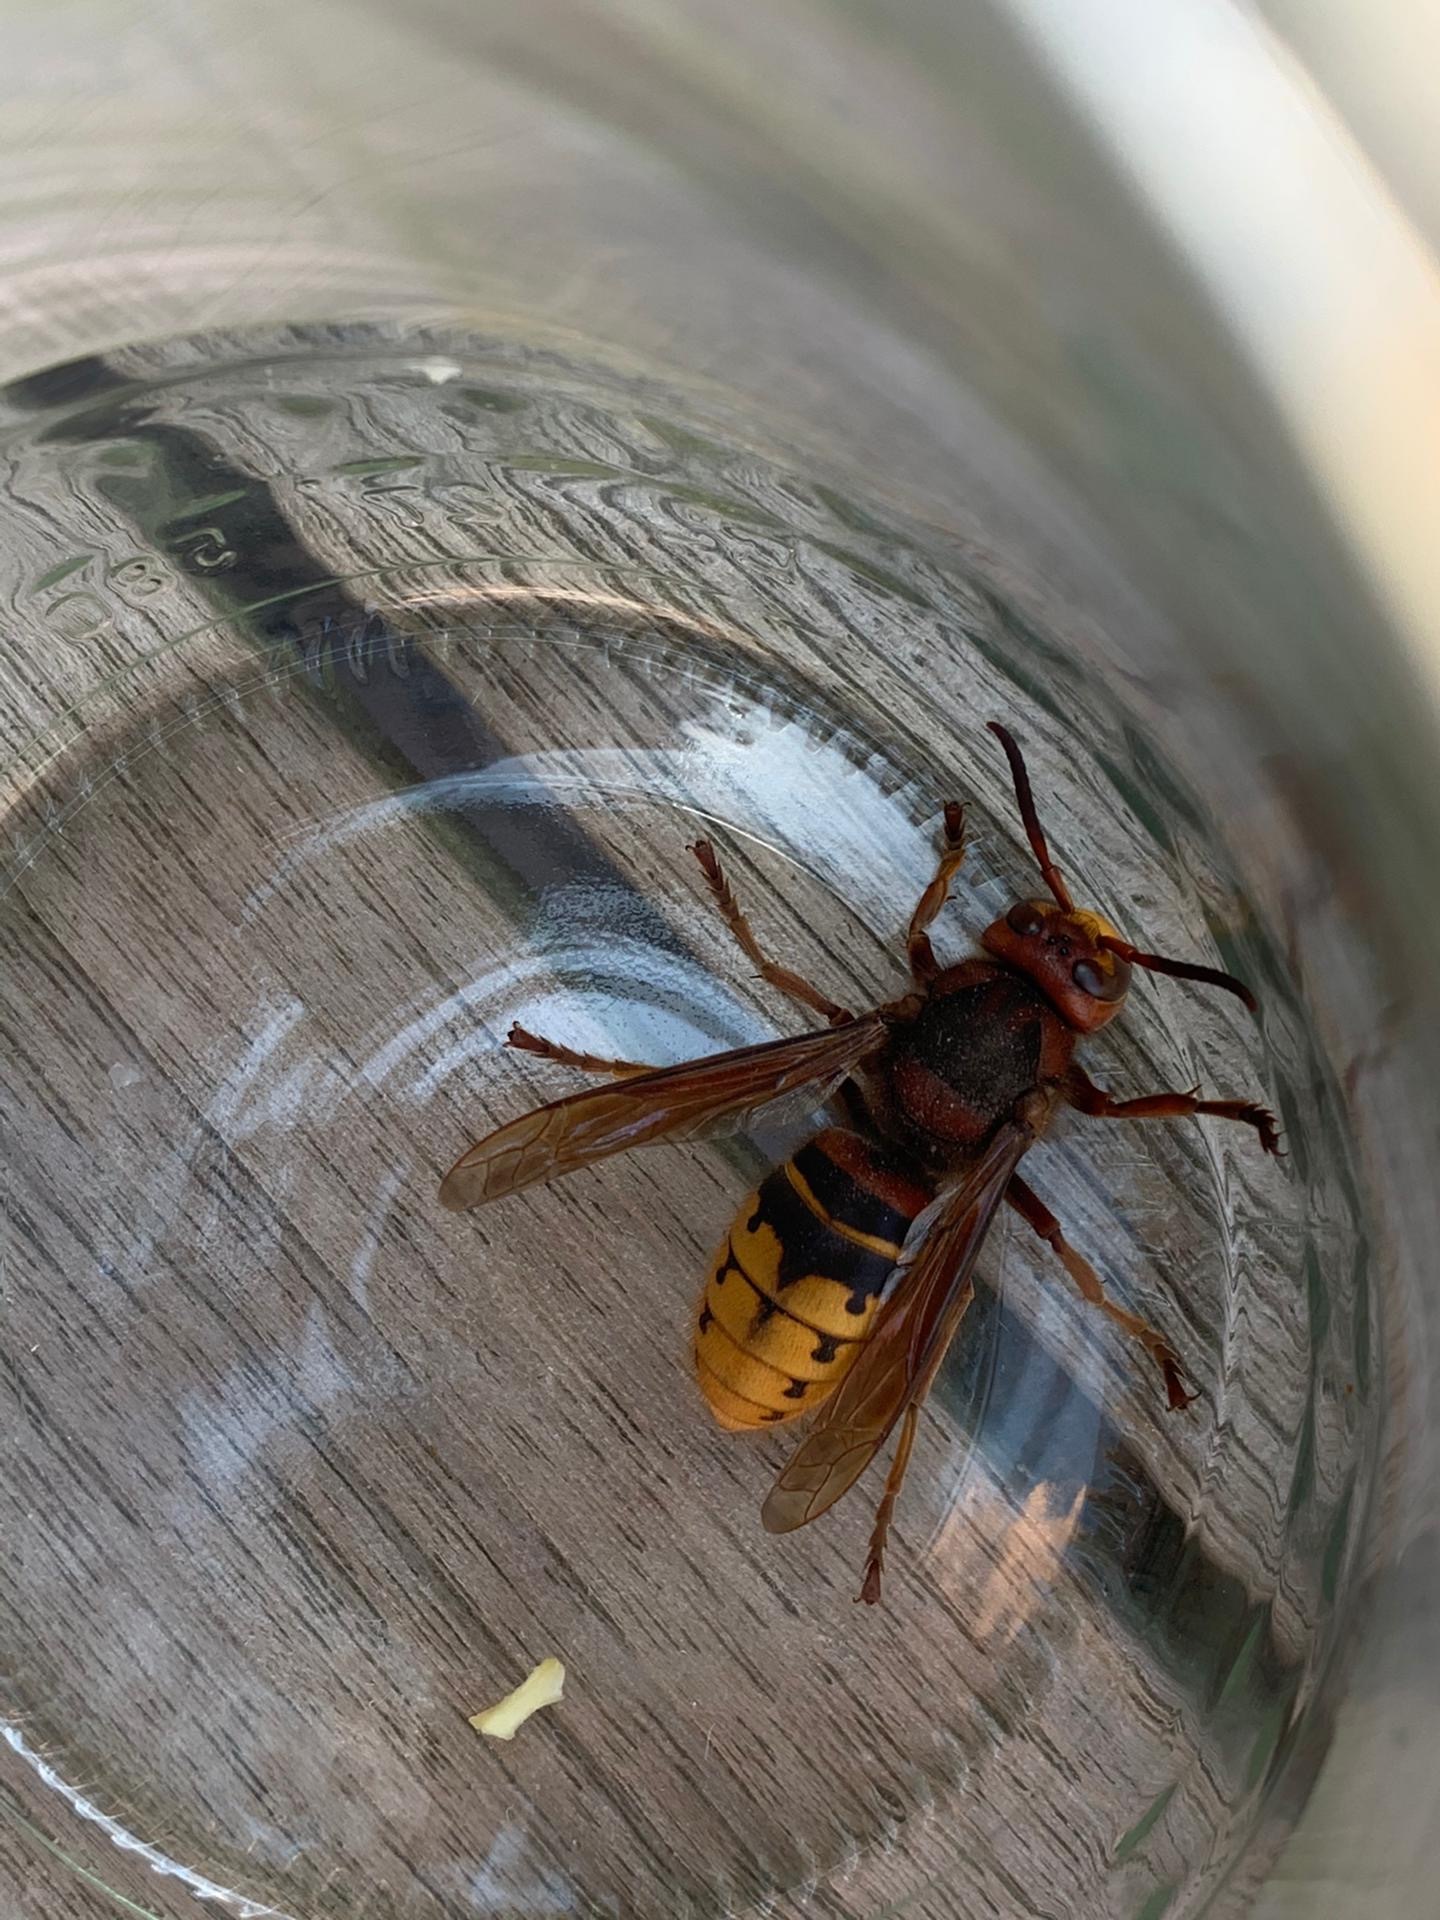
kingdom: Animalia
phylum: Arthropoda
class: Insecta
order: Hymenoptera
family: Vespidae
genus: Vespa
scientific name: Vespa crabro
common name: Hornet
